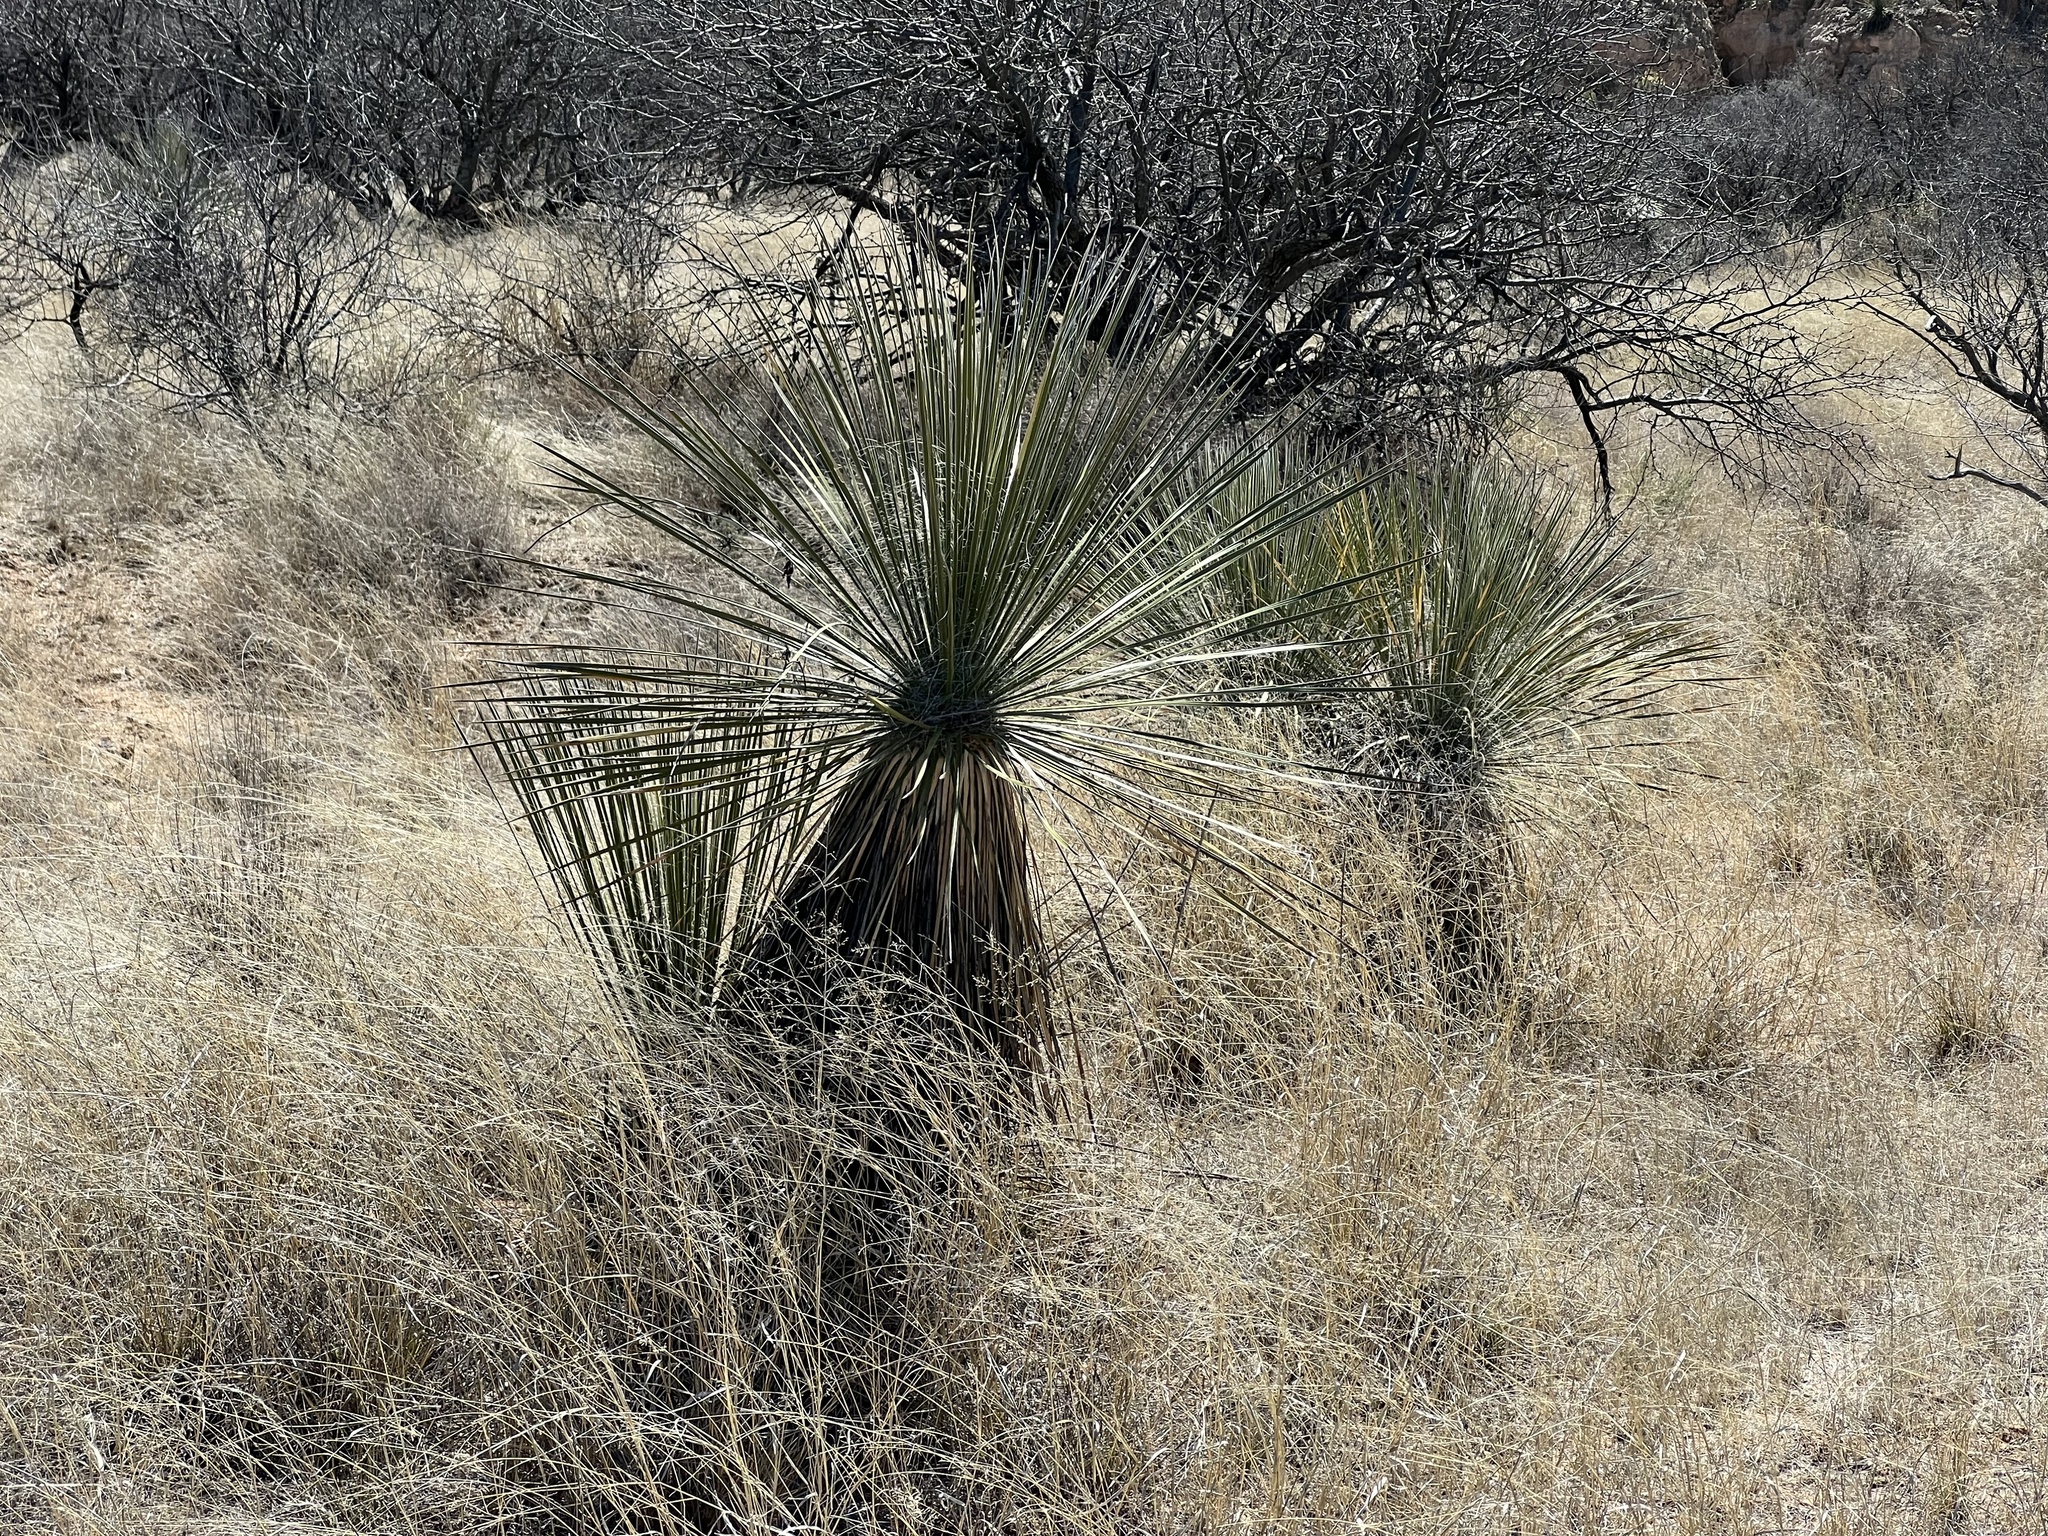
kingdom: Plantae
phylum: Tracheophyta
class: Liliopsida
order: Asparagales
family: Asparagaceae
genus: Yucca
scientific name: Yucca elata
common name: Palmella
